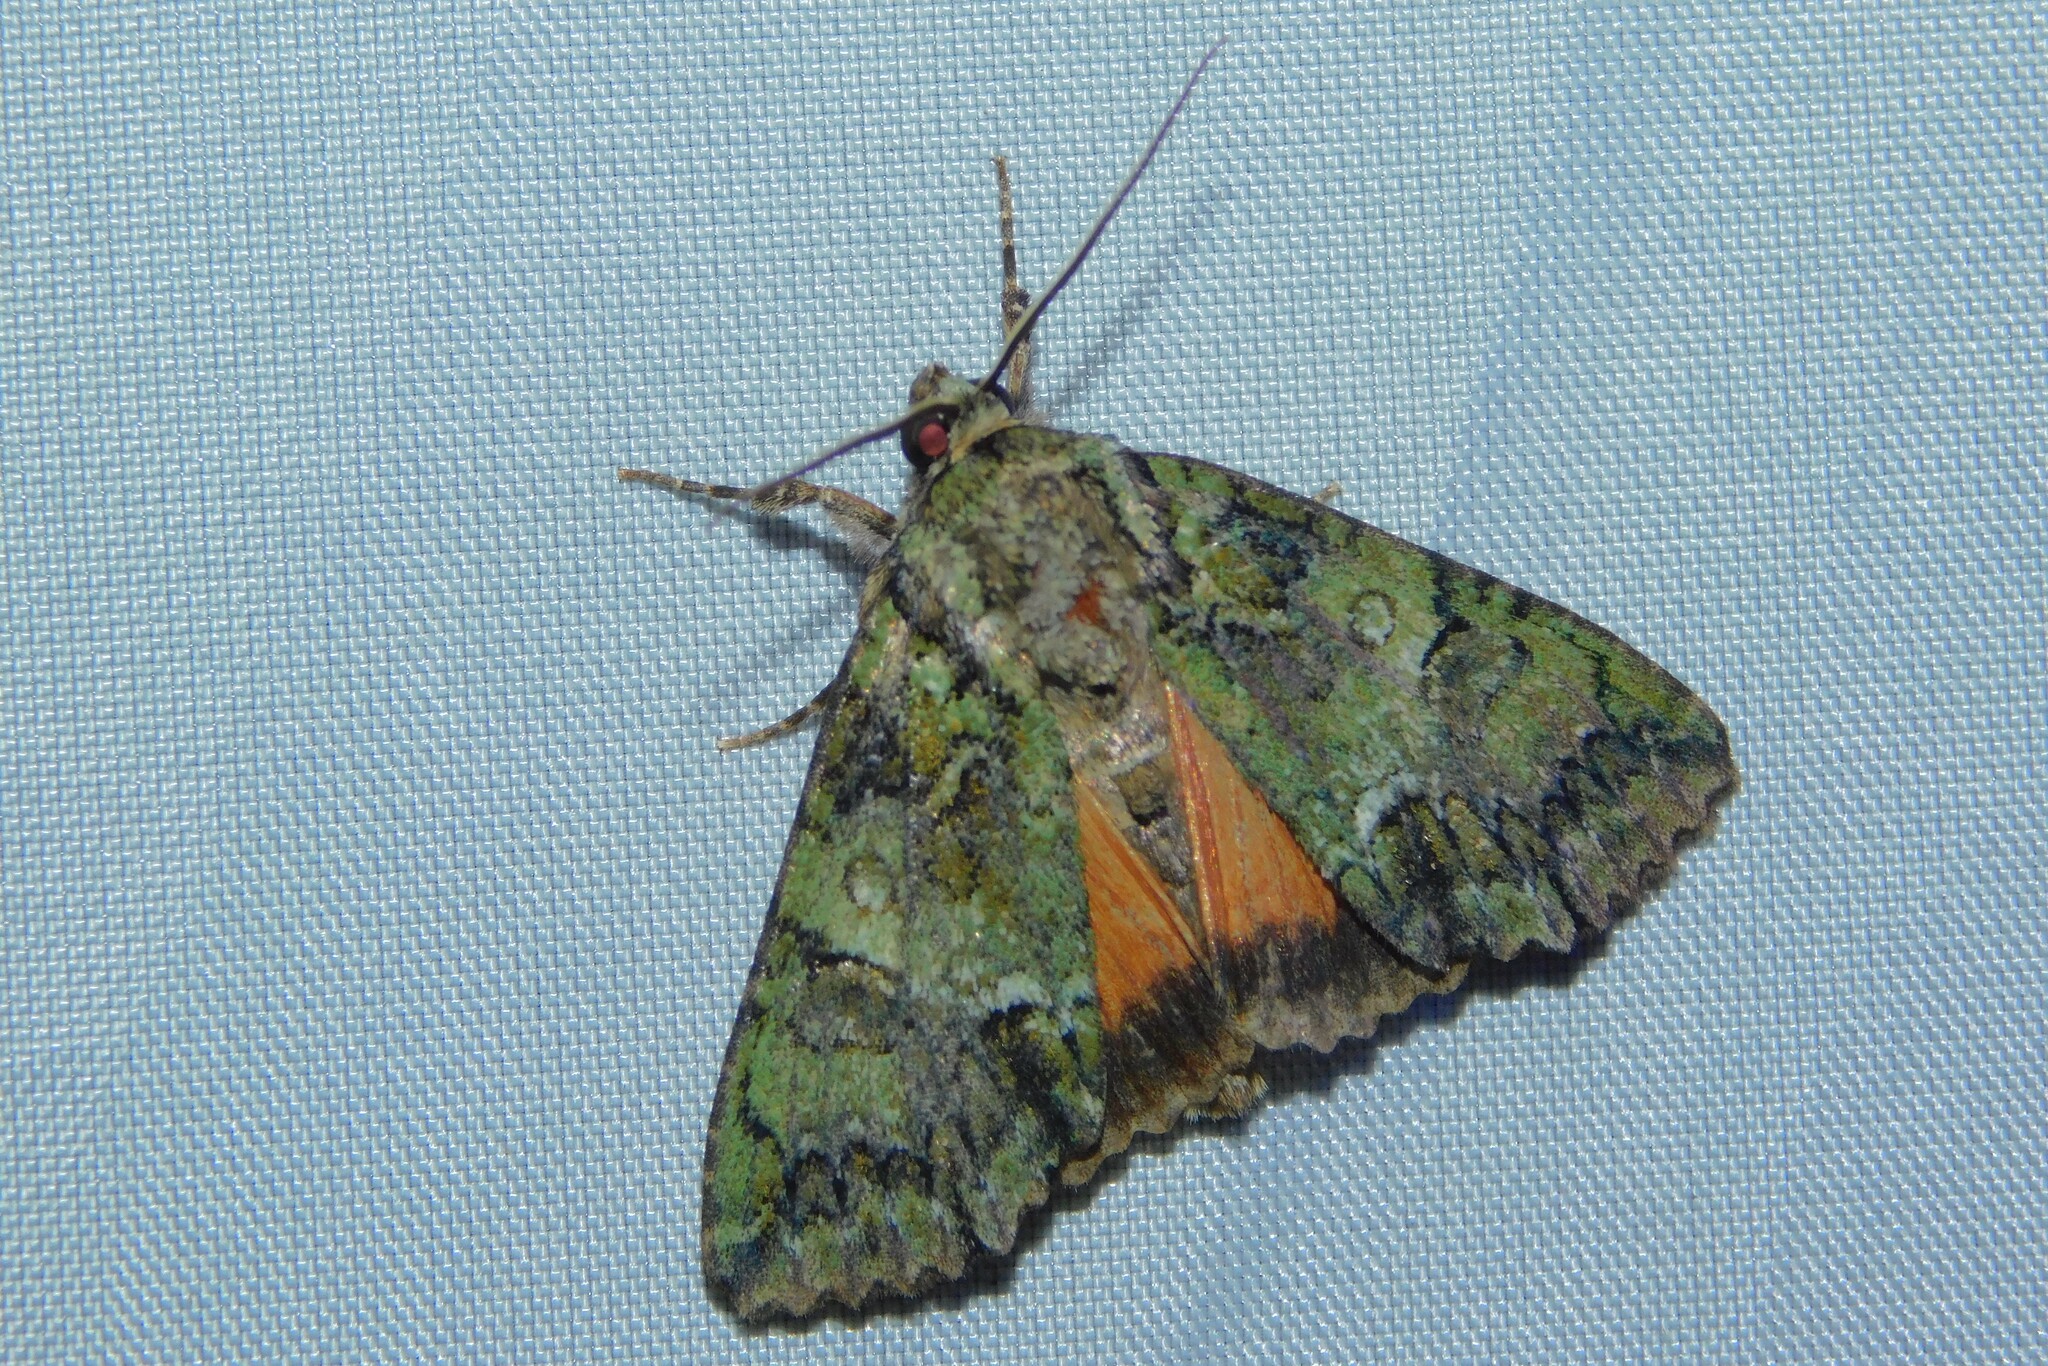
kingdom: Animalia
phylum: Arthropoda
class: Insecta
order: Lepidoptera
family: Noctuidae
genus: Polyphaenis
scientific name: Polyphaenis sericata
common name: Guernsey underwing
